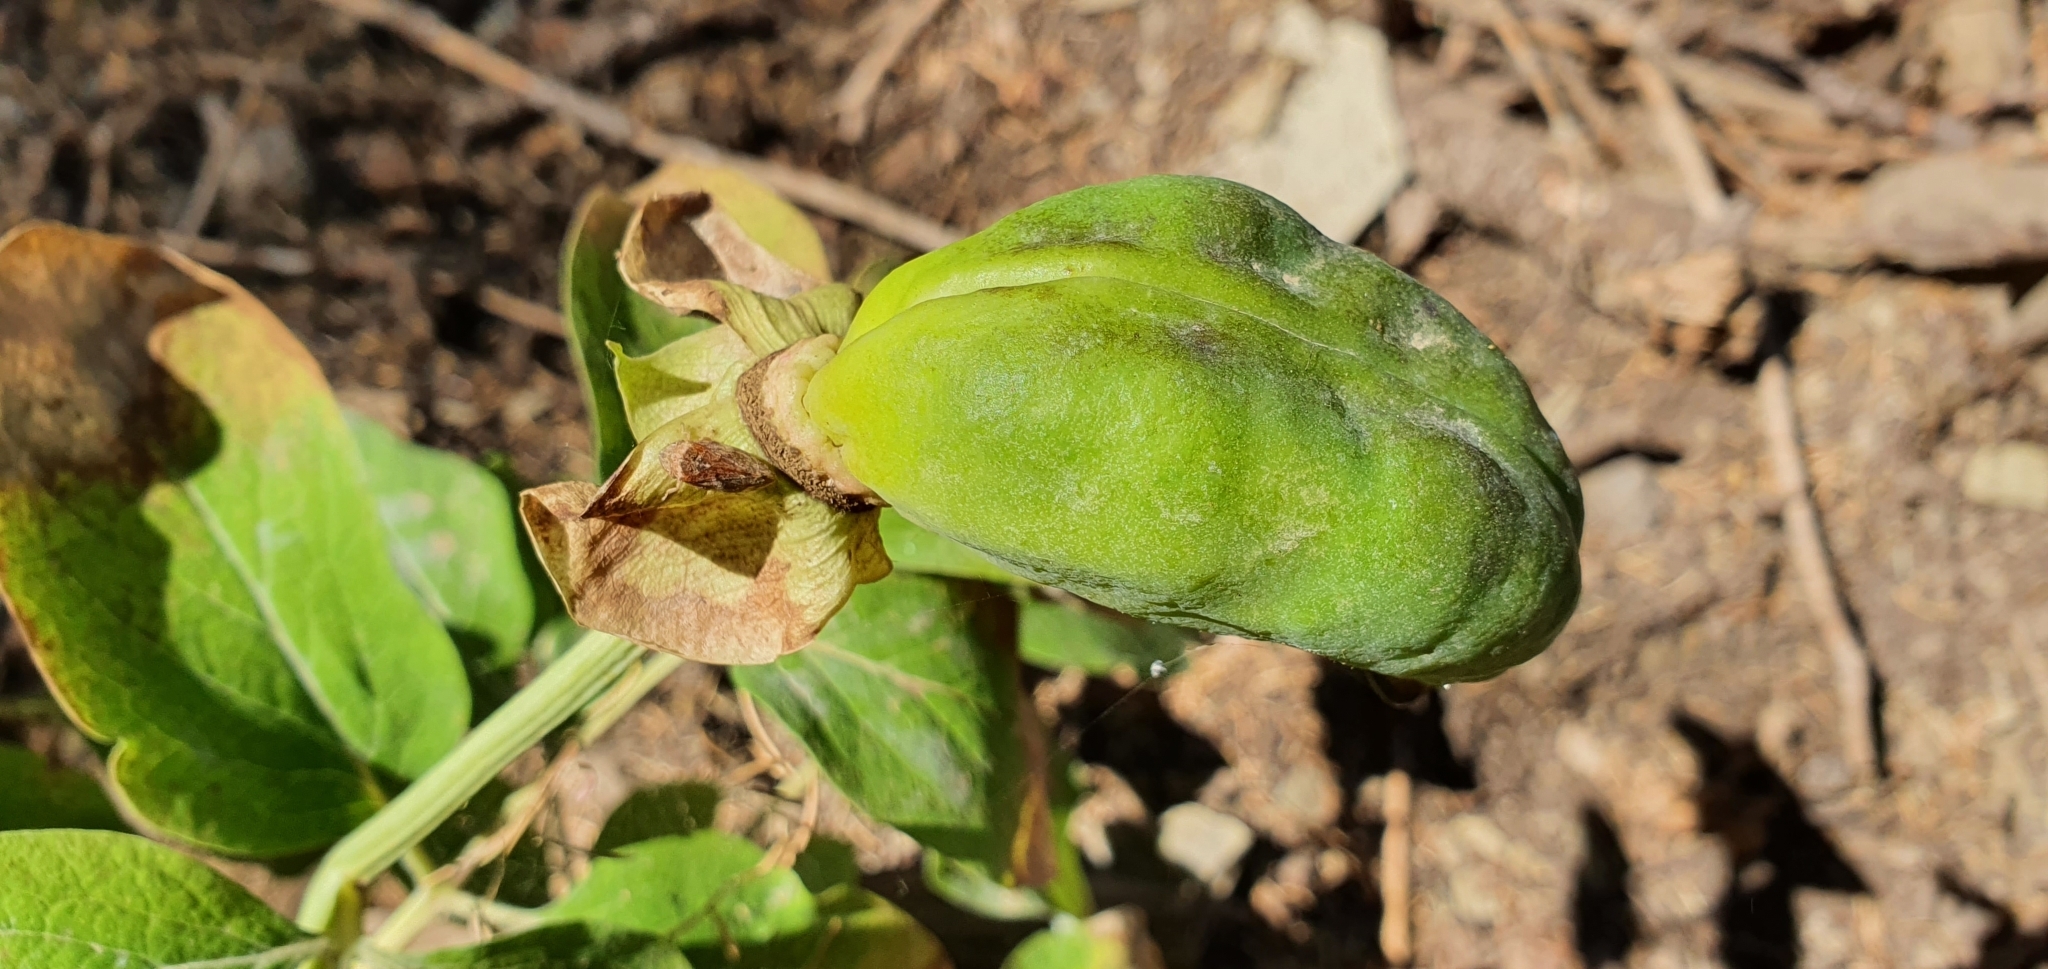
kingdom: Plantae
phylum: Tracheophyta
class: Magnoliopsida
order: Saxifragales
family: Paeoniaceae
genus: Paeonia
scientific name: Paeonia algeriensis
